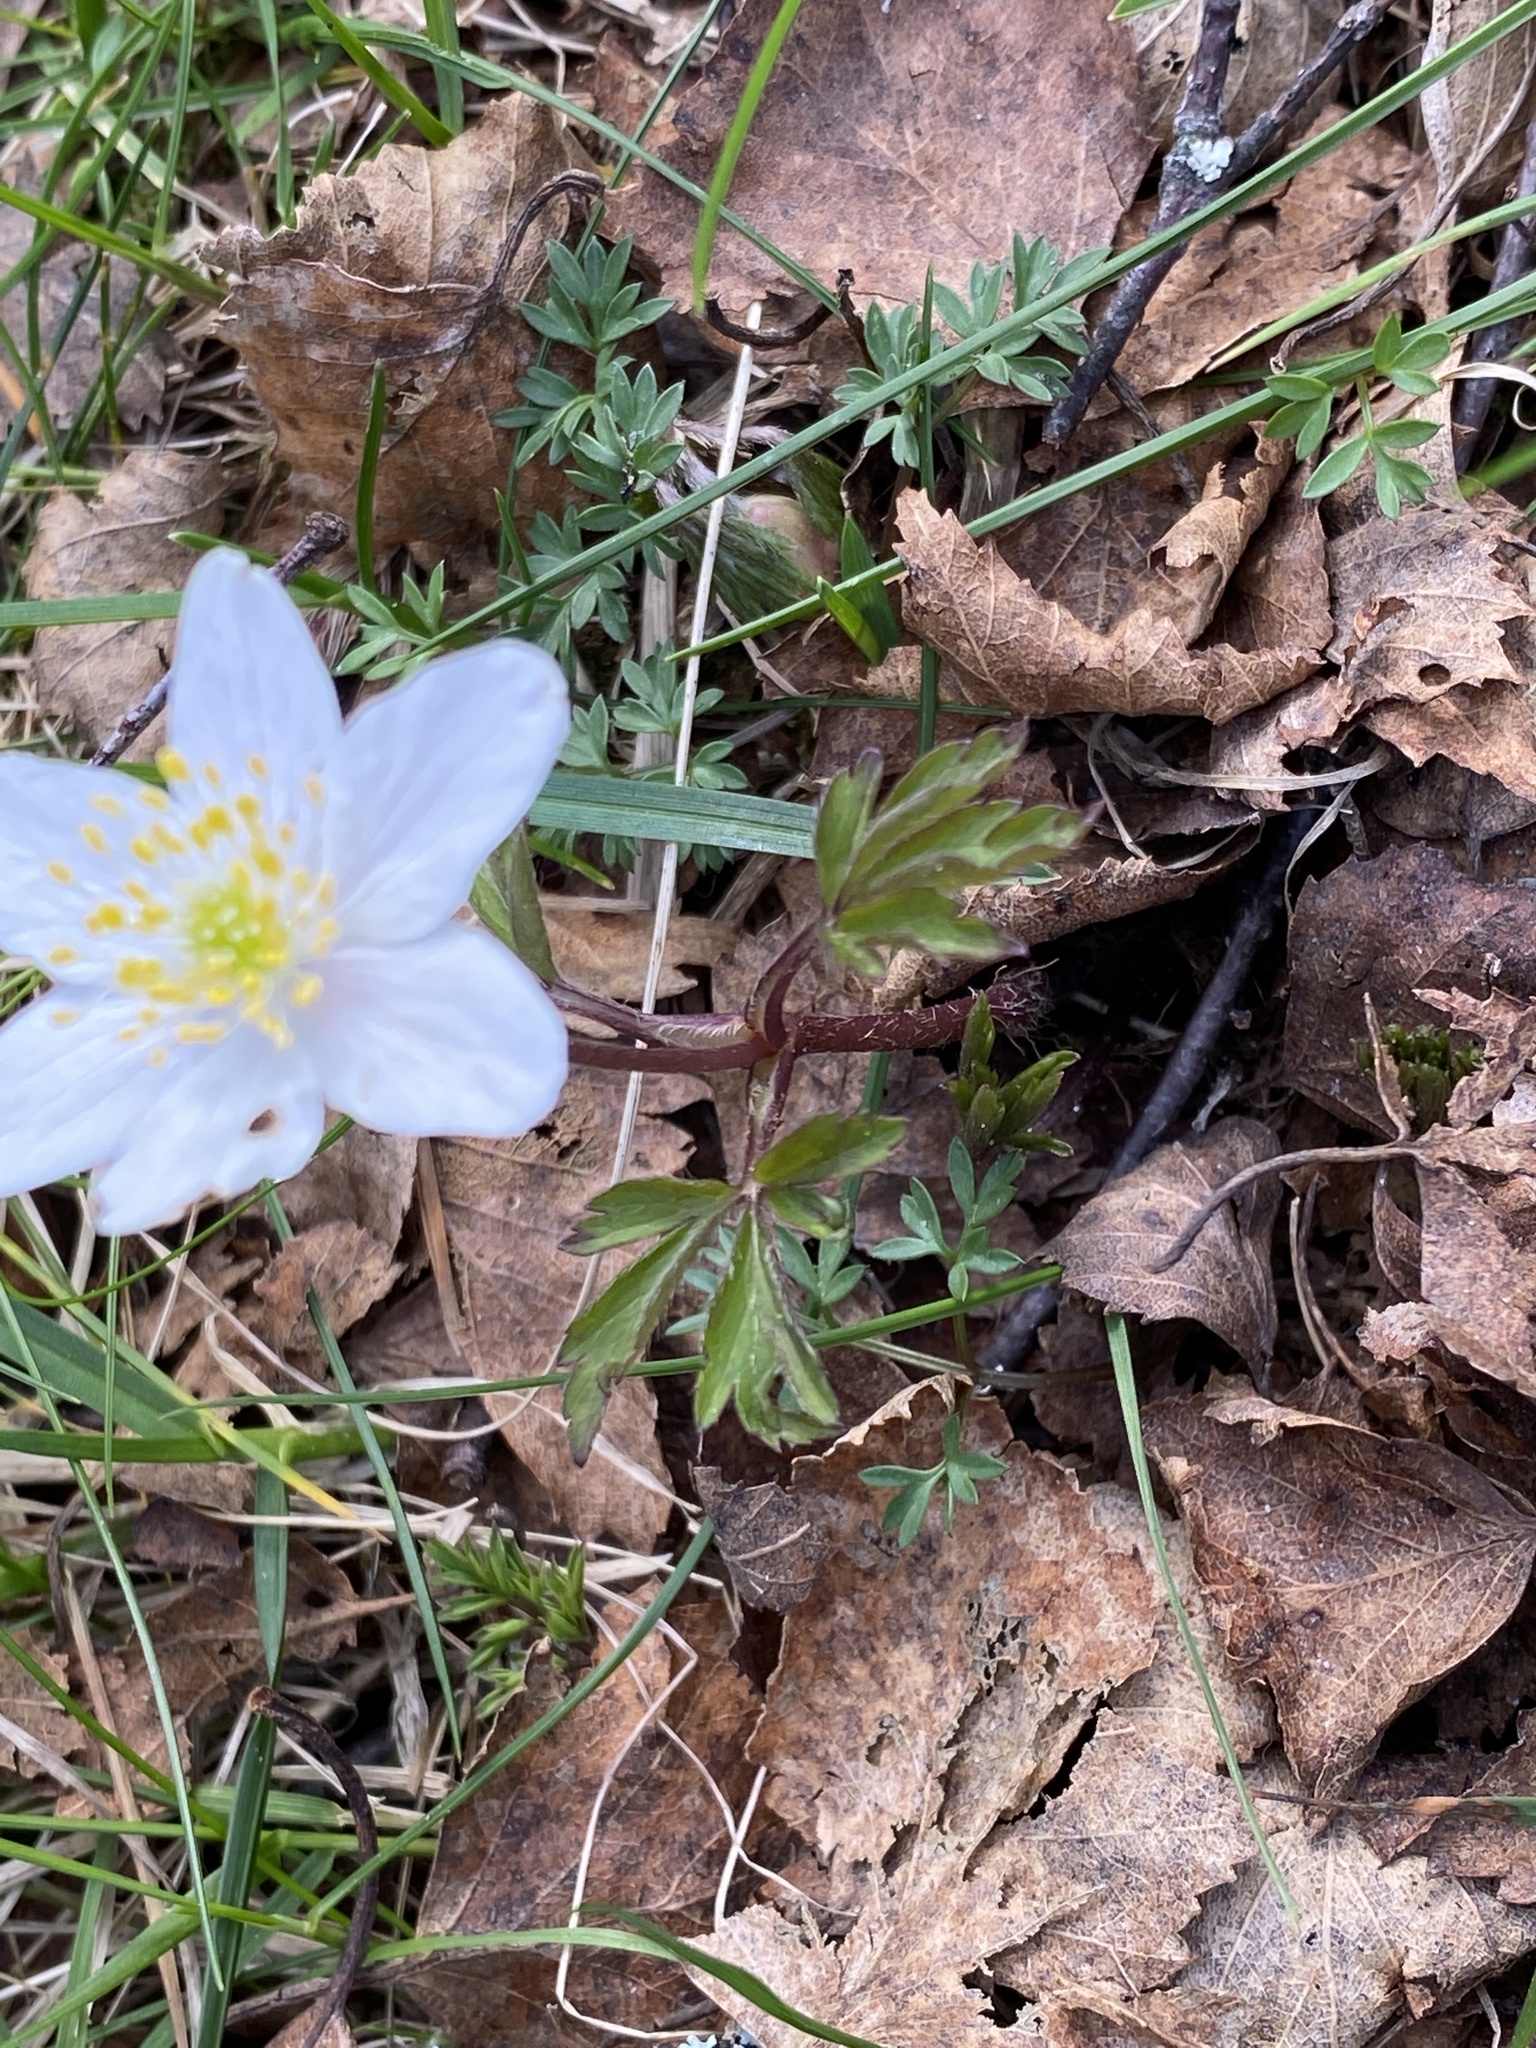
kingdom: Plantae
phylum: Tracheophyta
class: Magnoliopsida
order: Ranunculales
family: Ranunculaceae
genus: Anemone
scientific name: Anemone nemorosa
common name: Wood anemone
